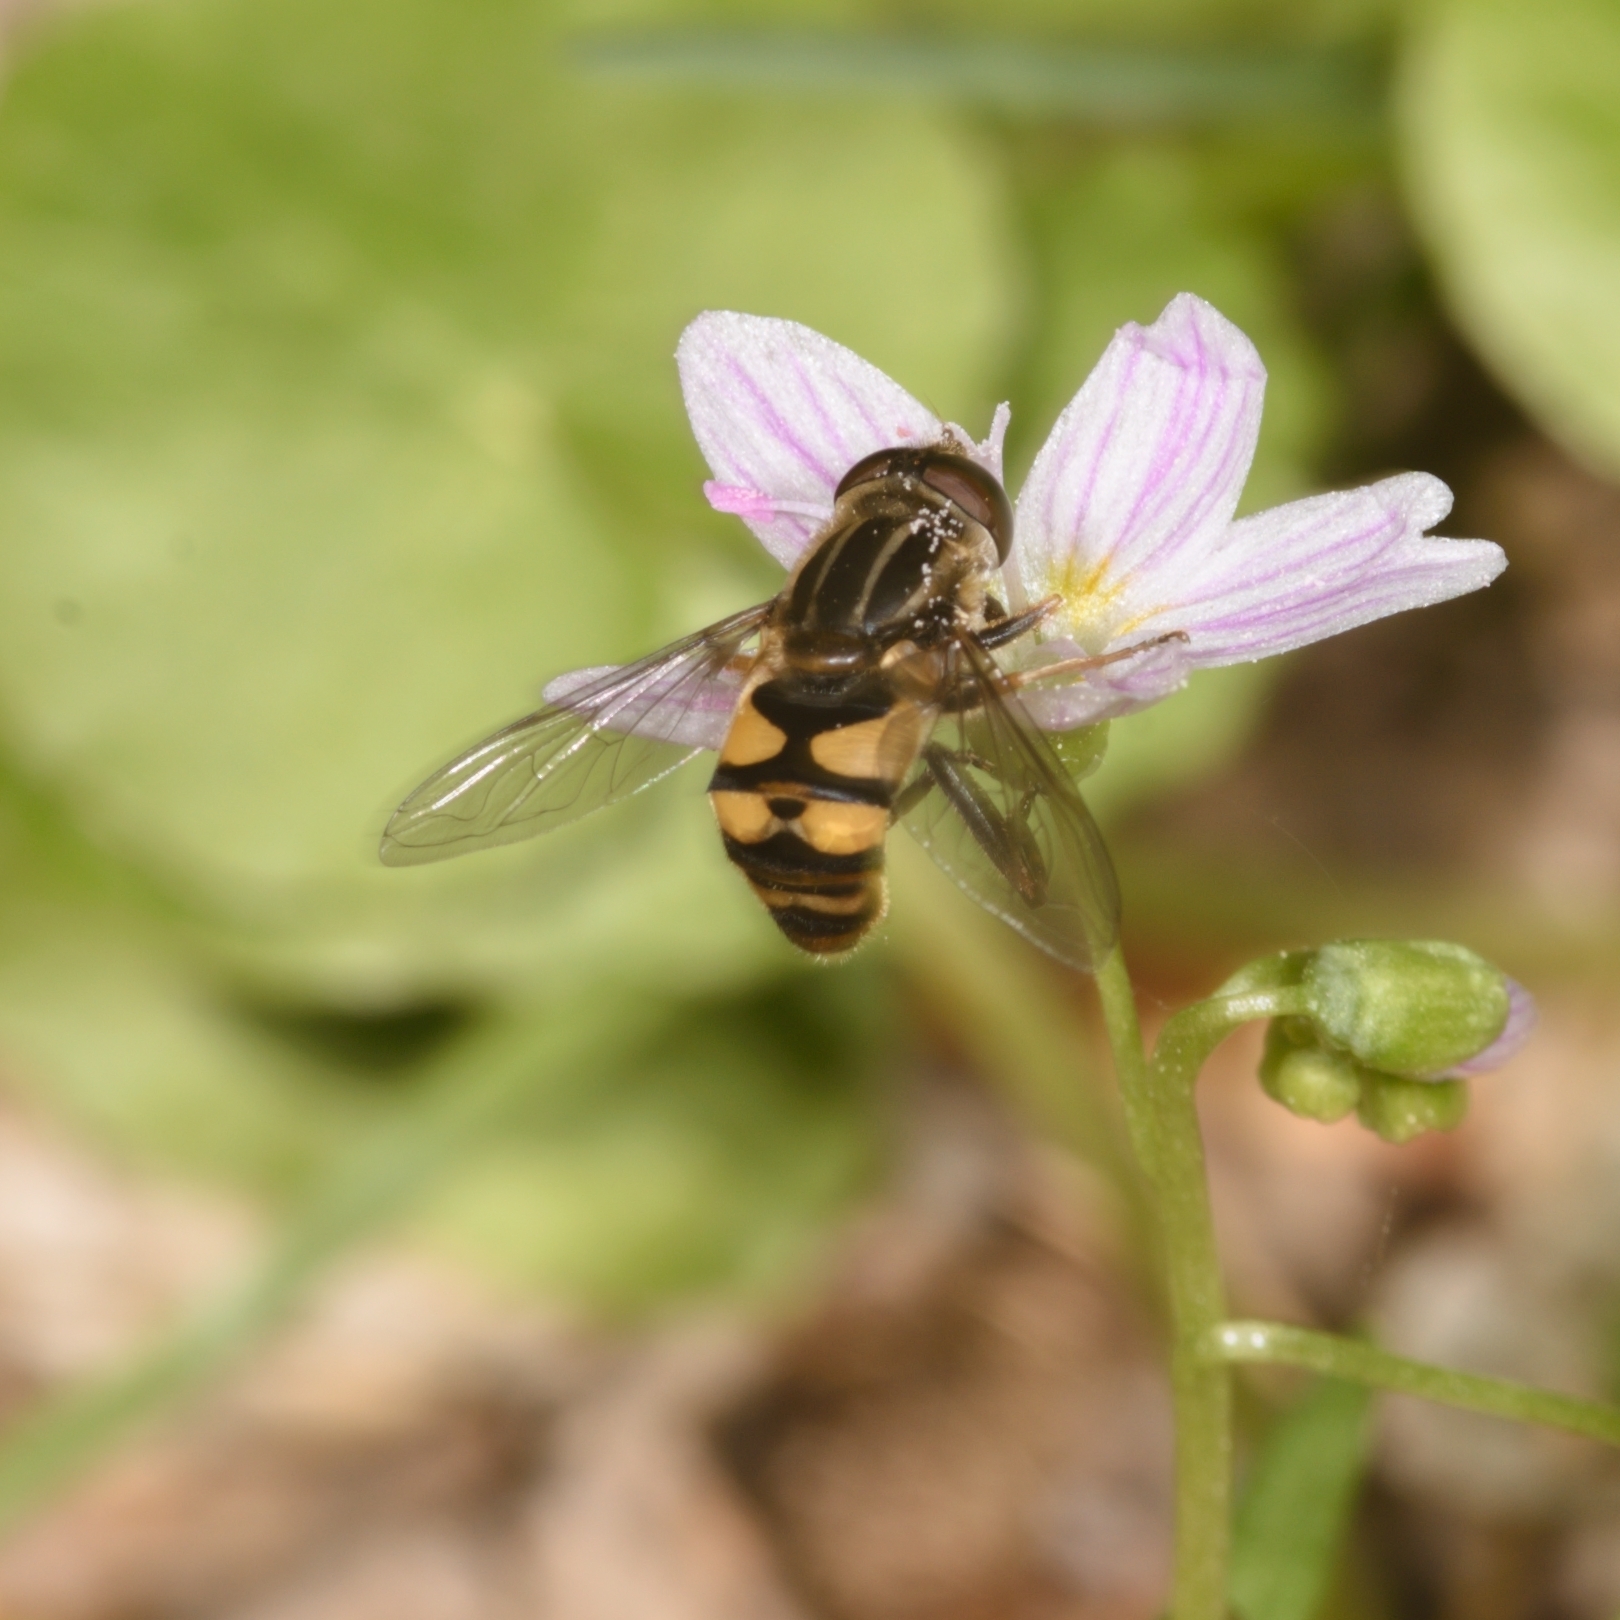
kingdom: Animalia
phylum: Arthropoda
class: Insecta
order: Diptera
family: Syrphidae
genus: Helophilus
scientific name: Helophilus fasciatus
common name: Narrow-headed marsh fly
